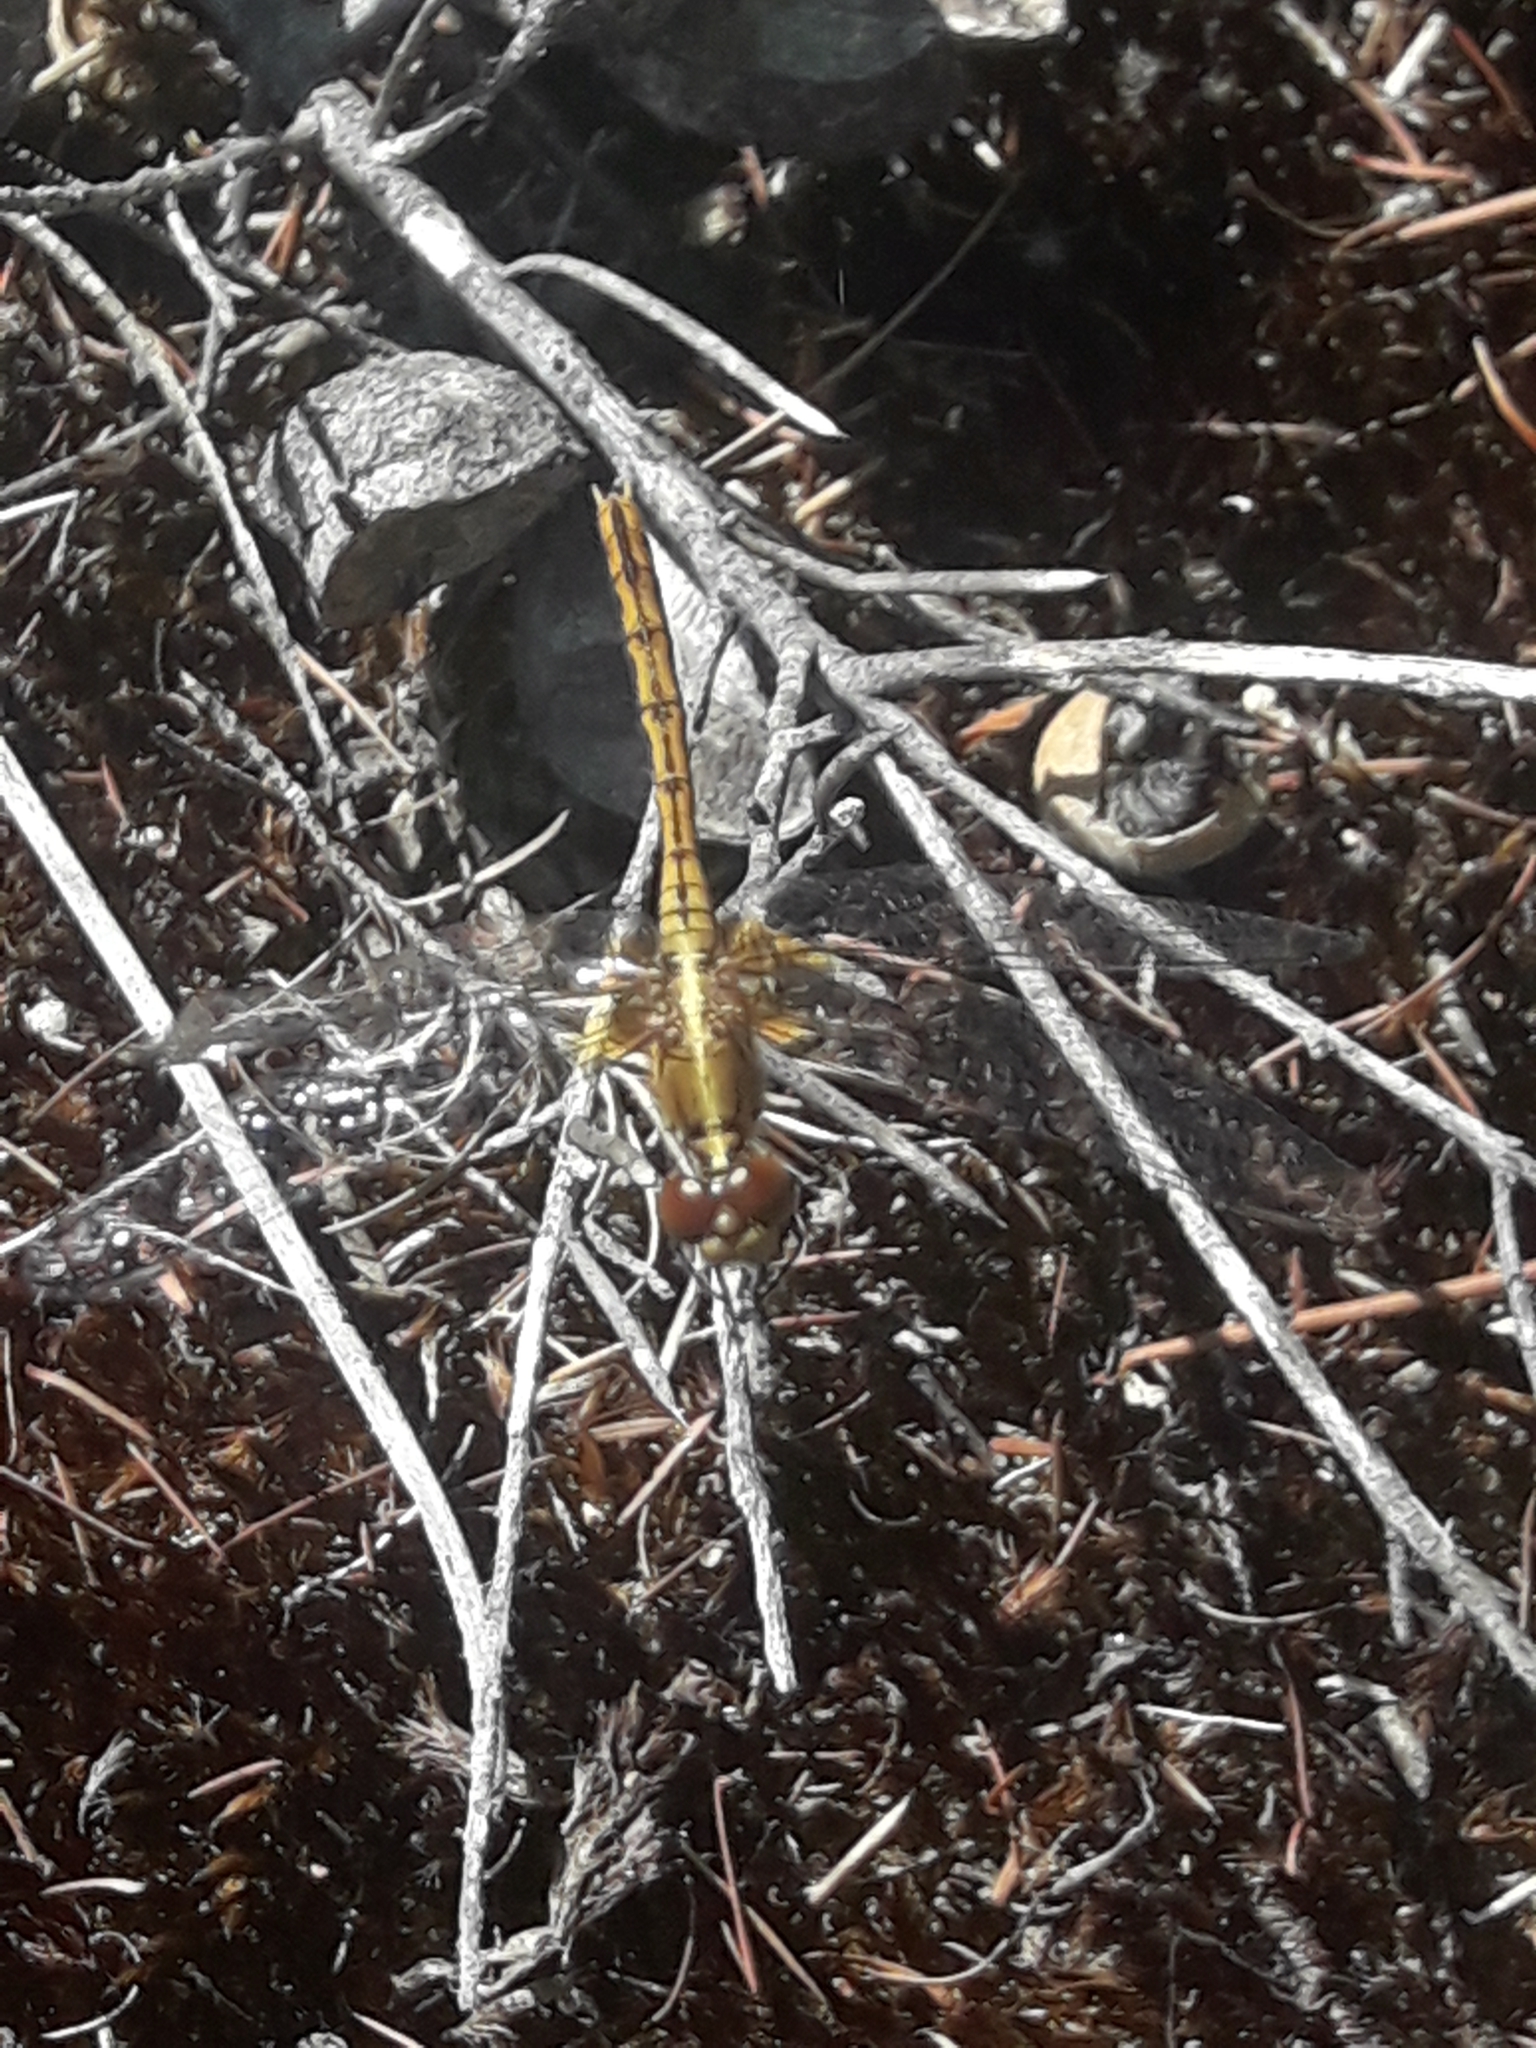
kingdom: Animalia
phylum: Arthropoda
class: Insecta
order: Odonata
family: Libellulidae
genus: Diplacodes
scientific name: Diplacodes bipunctata
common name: Red percher dragonfly
